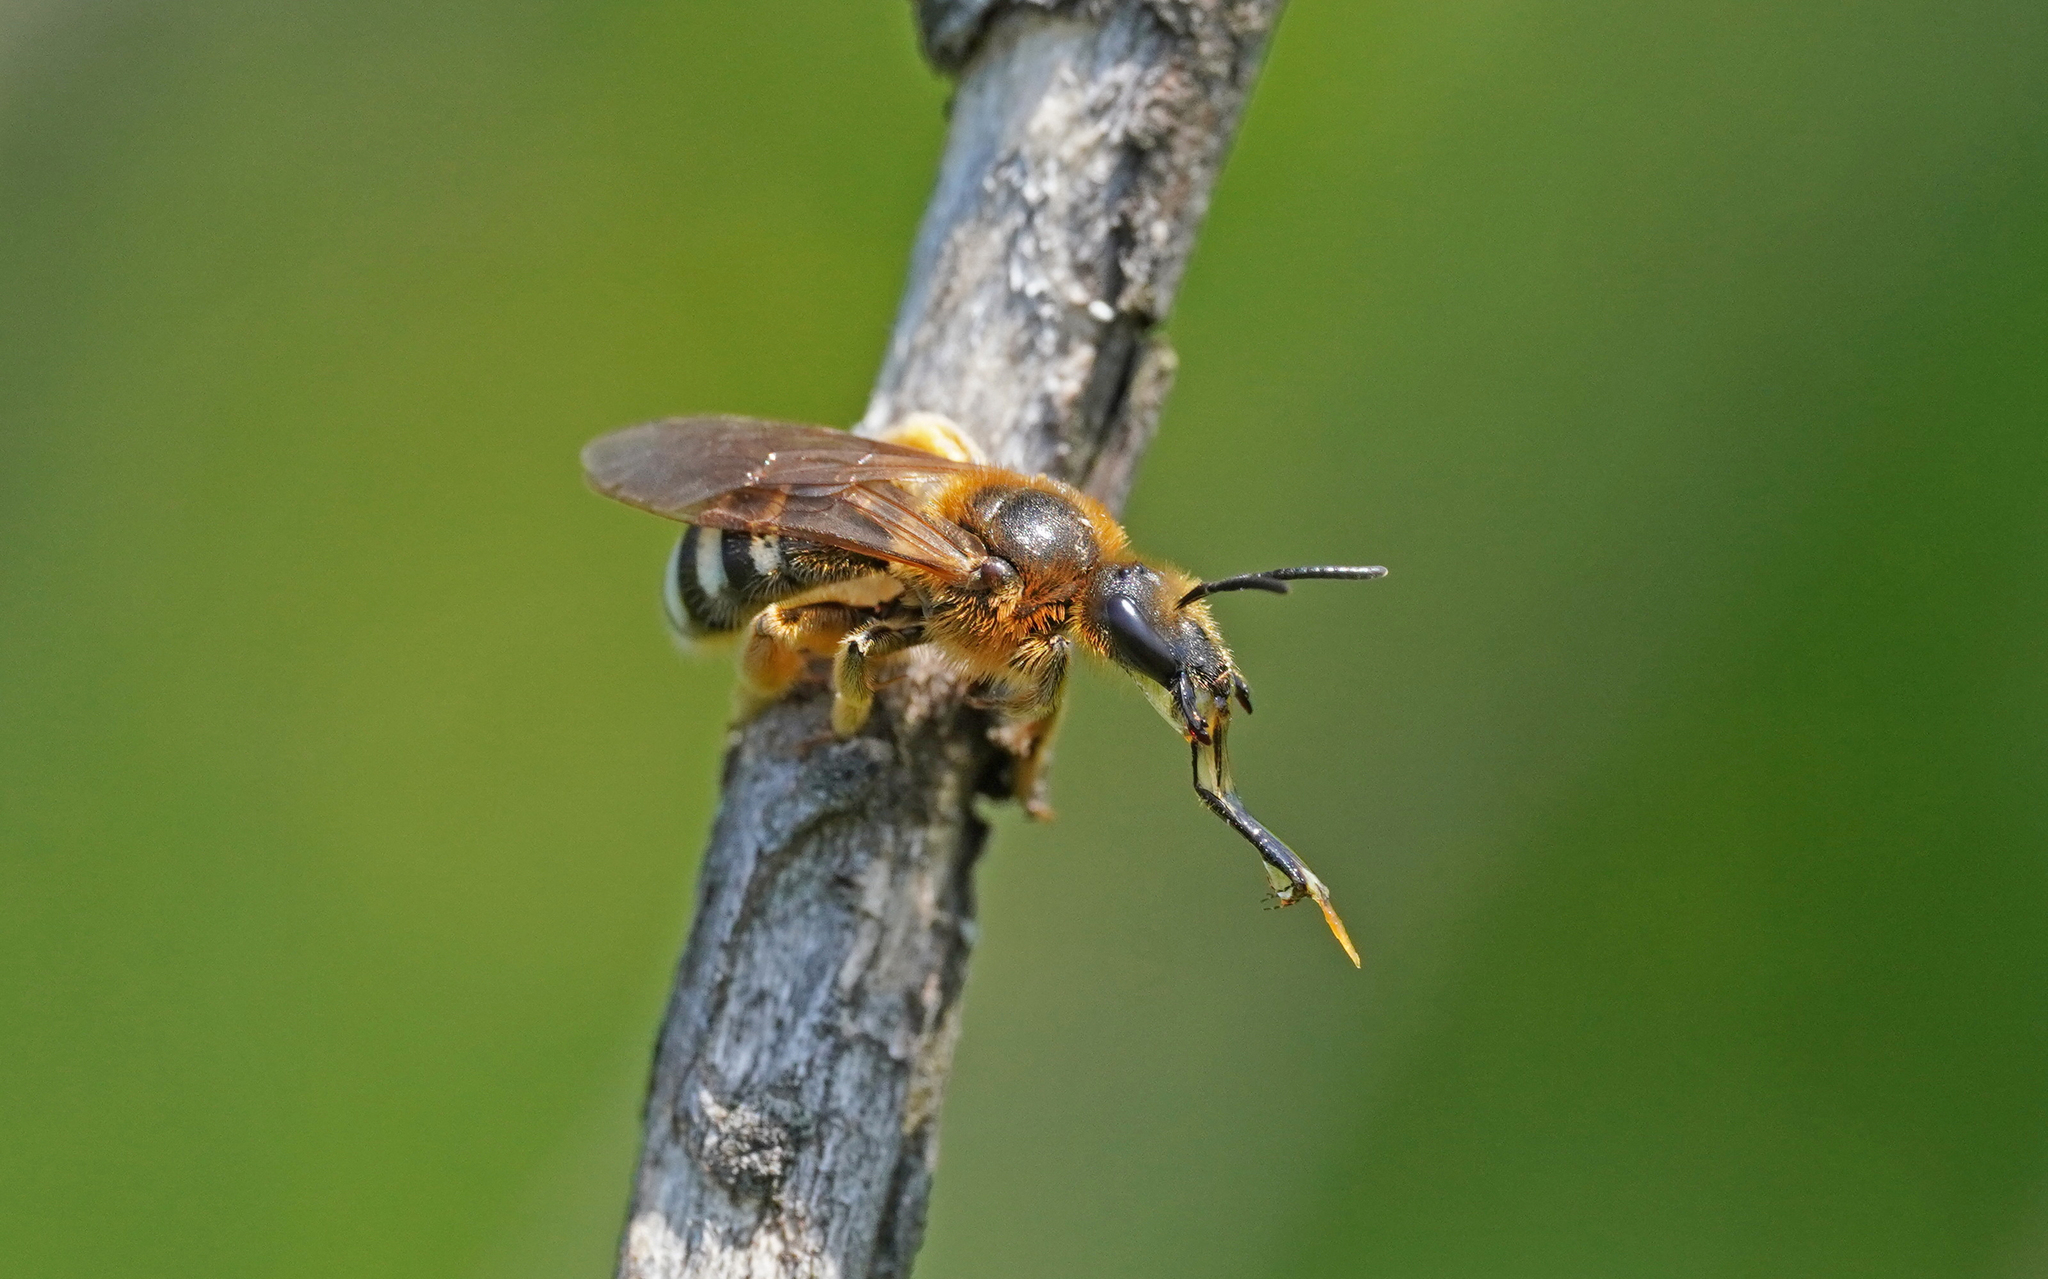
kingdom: Animalia
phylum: Arthropoda
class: Insecta
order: Hymenoptera
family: Halictidae
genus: Lasioglossum
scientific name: Lasioglossum xanthopus
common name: Orange-footed furrow bee
